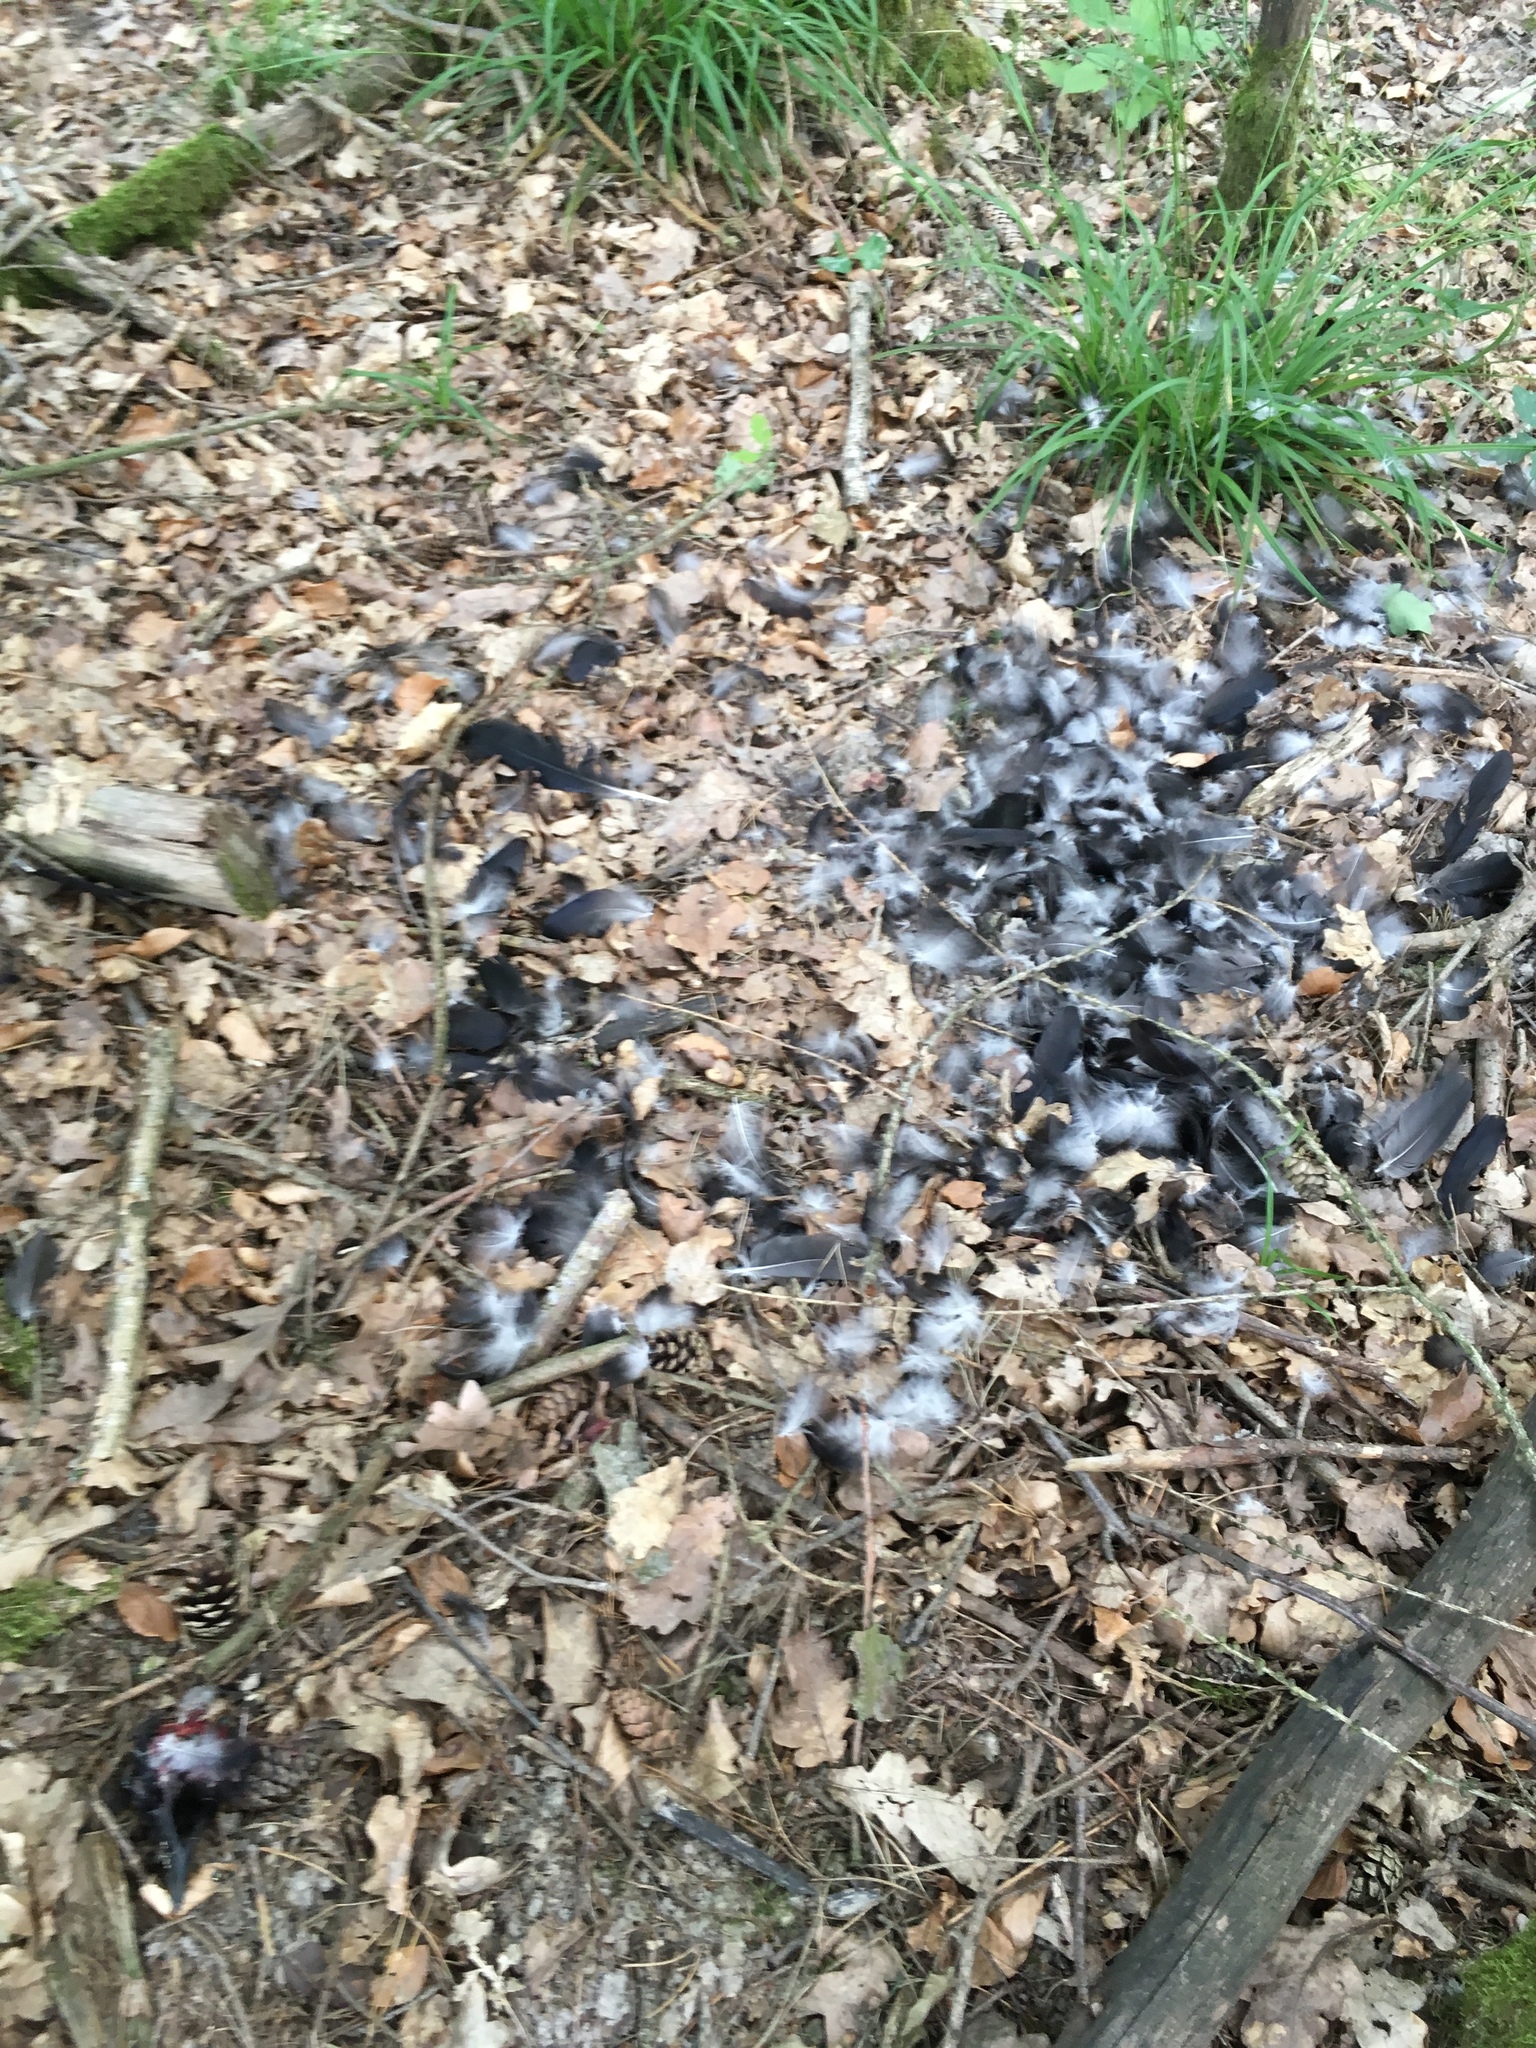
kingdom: Animalia
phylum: Chordata
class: Aves
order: Passeriformes
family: Corvidae
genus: Corvus
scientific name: Corvus corone
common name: Carrion crow
